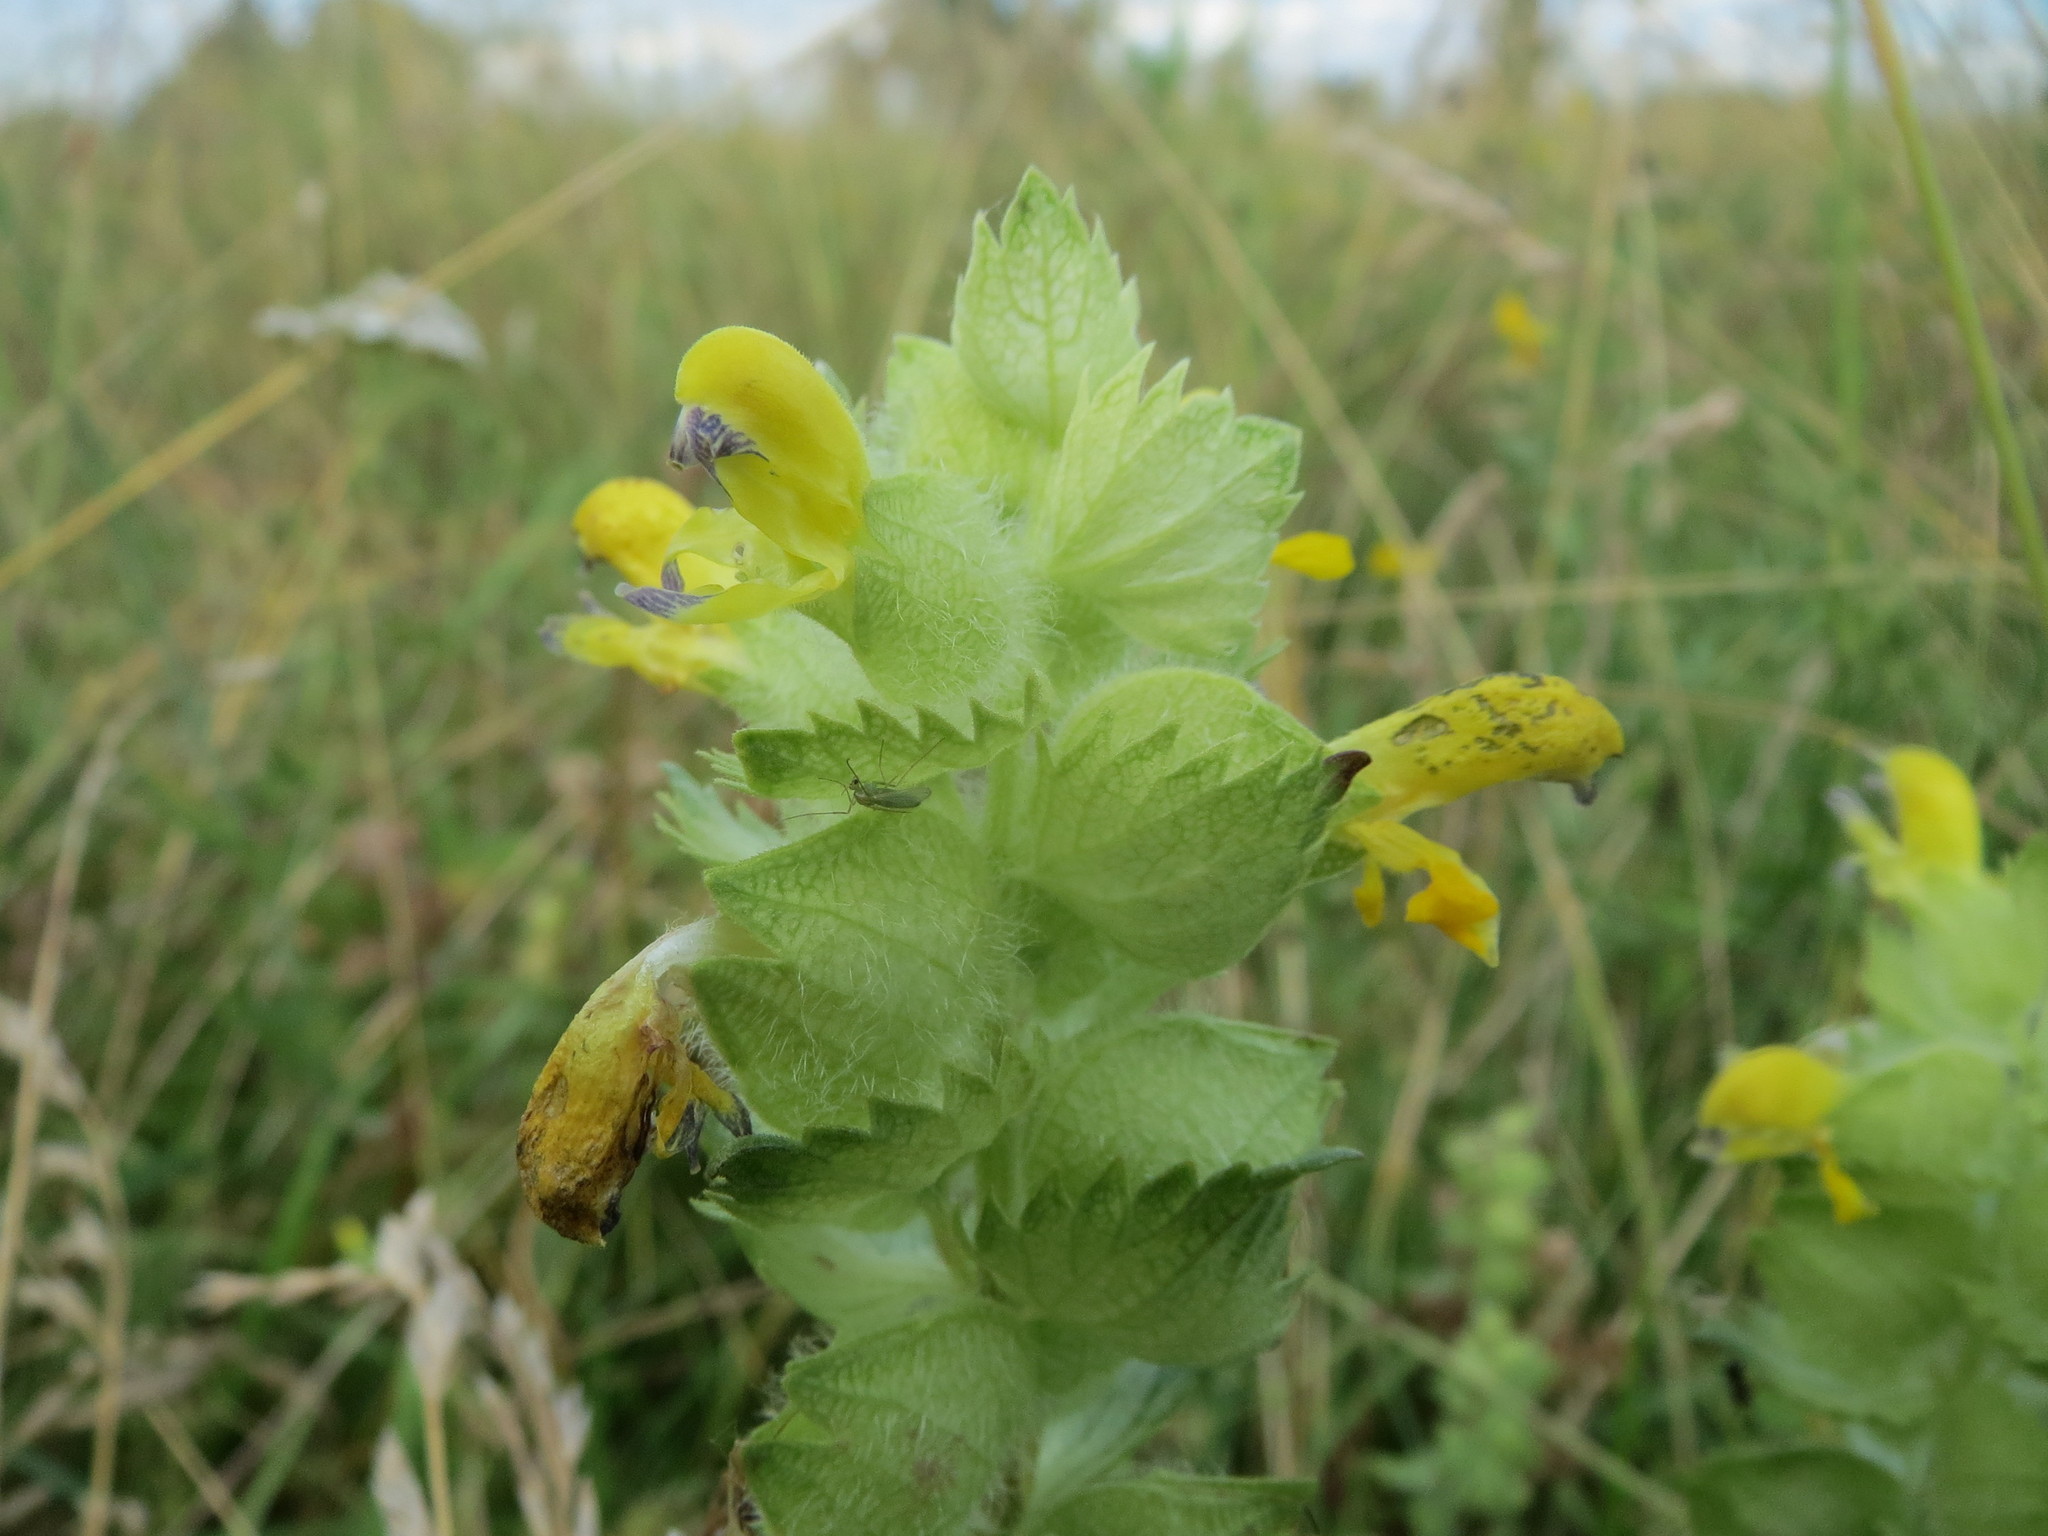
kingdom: Plantae
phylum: Tracheophyta
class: Magnoliopsida
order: Lamiales
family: Orobanchaceae
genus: Rhinanthus
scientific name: Rhinanthus alectorolophus
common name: Greater yellow-rattle
